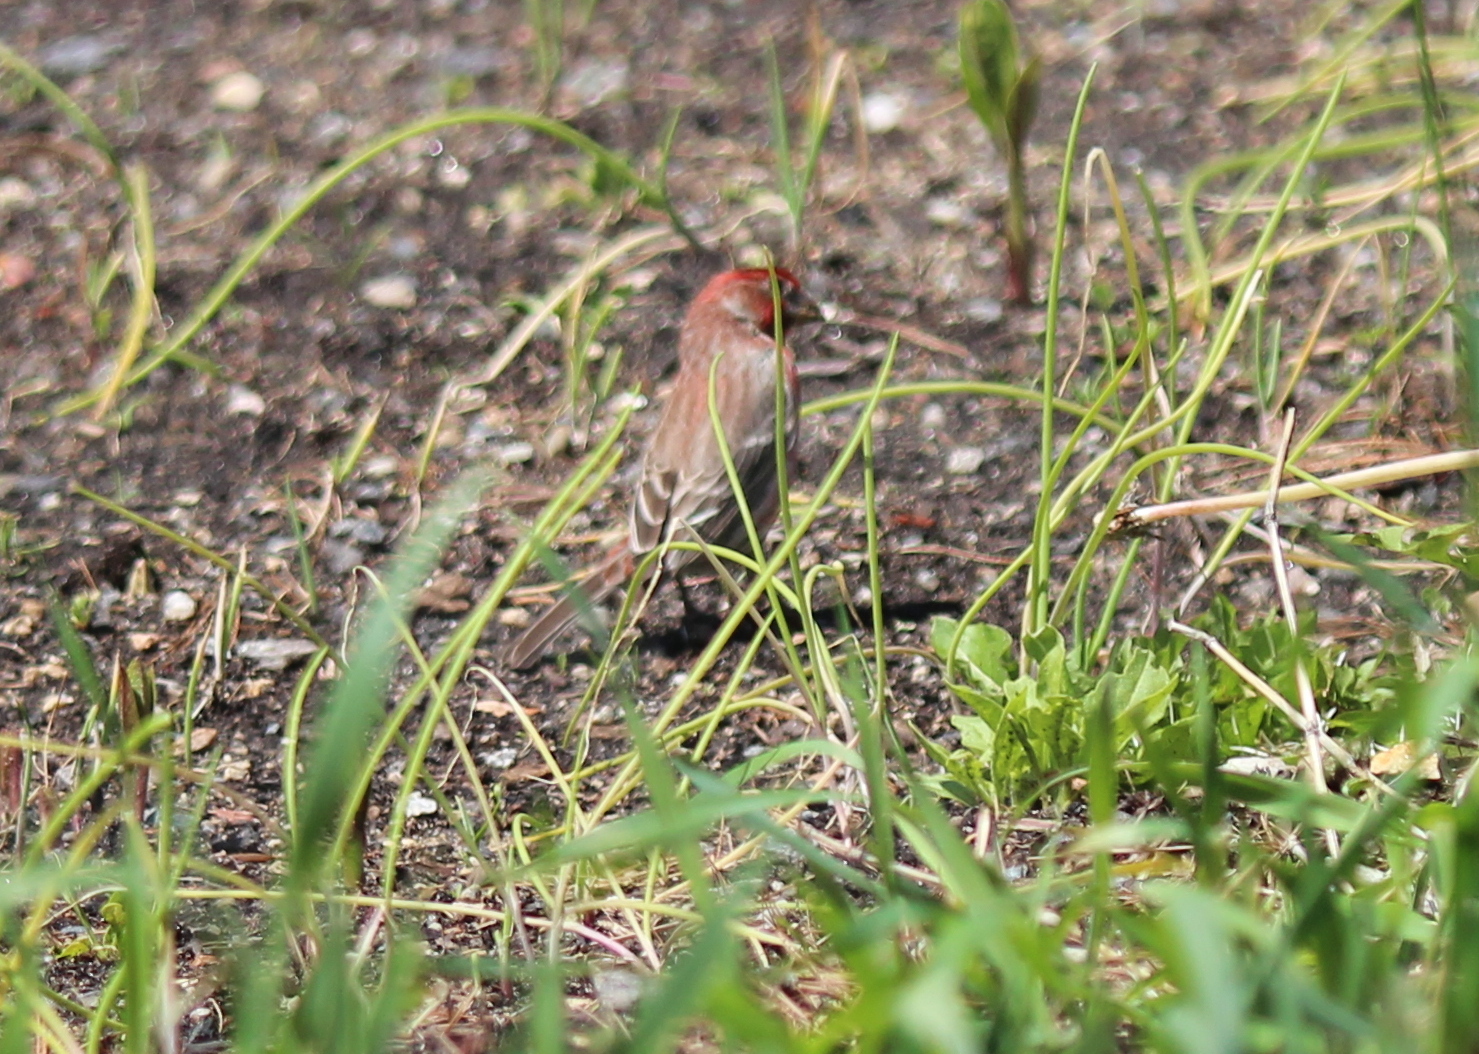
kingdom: Animalia
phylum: Chordata
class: Aves
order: Passeriformes
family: Fringillidae
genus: Haemorhous
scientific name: Haemorhous mexicanus
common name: House finch
